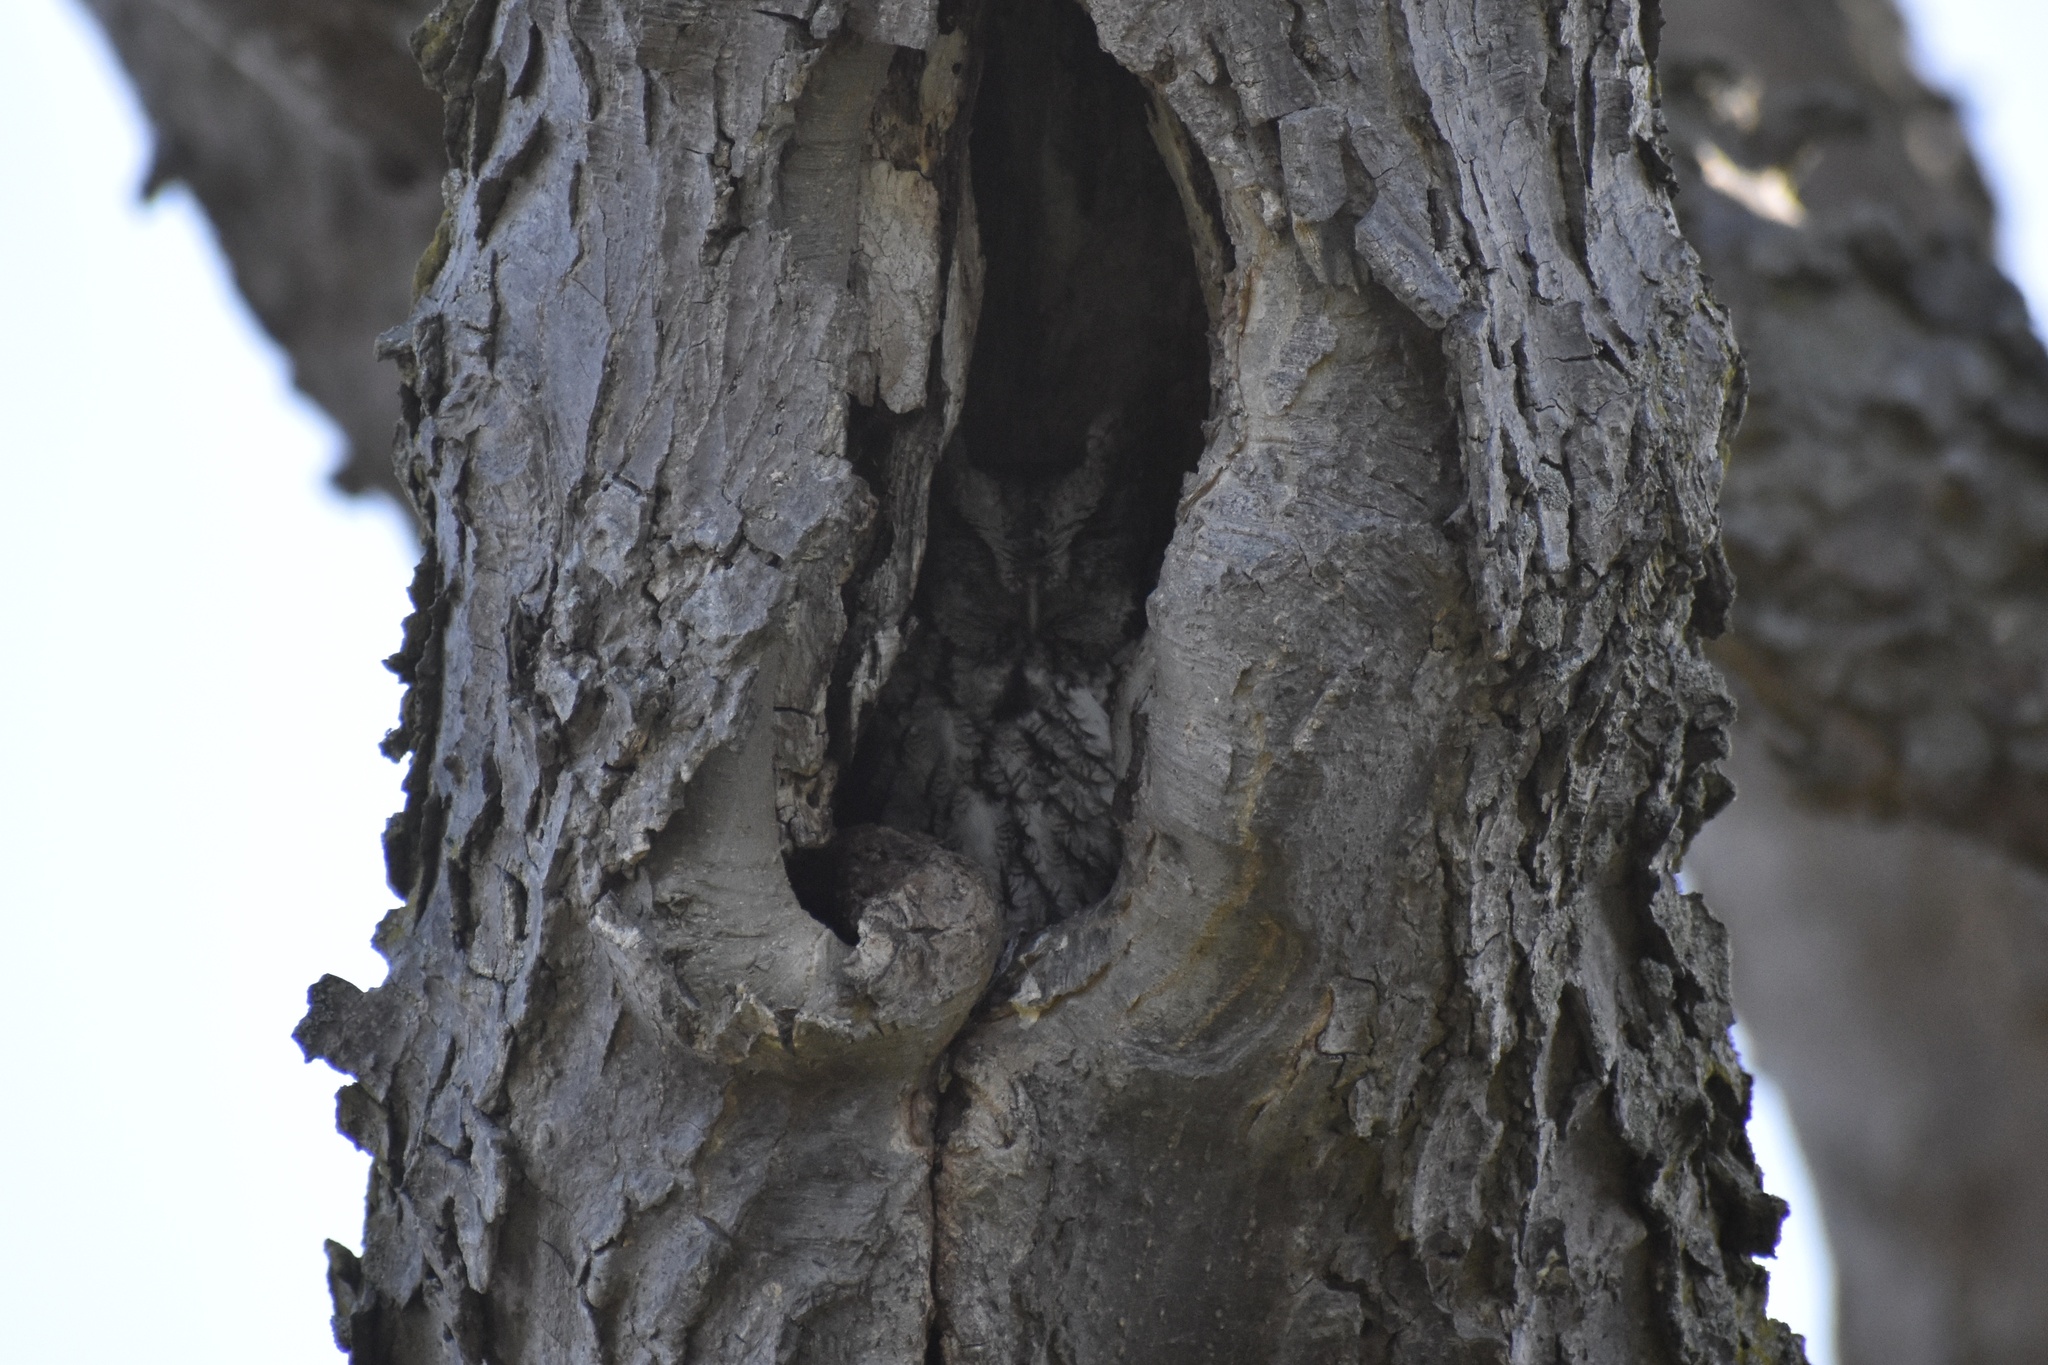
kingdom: Animalia
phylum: Chordata
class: Aves
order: Strigiformes
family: Strigidae
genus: Megascops
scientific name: Megascops asio
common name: Eastern screech-owl
